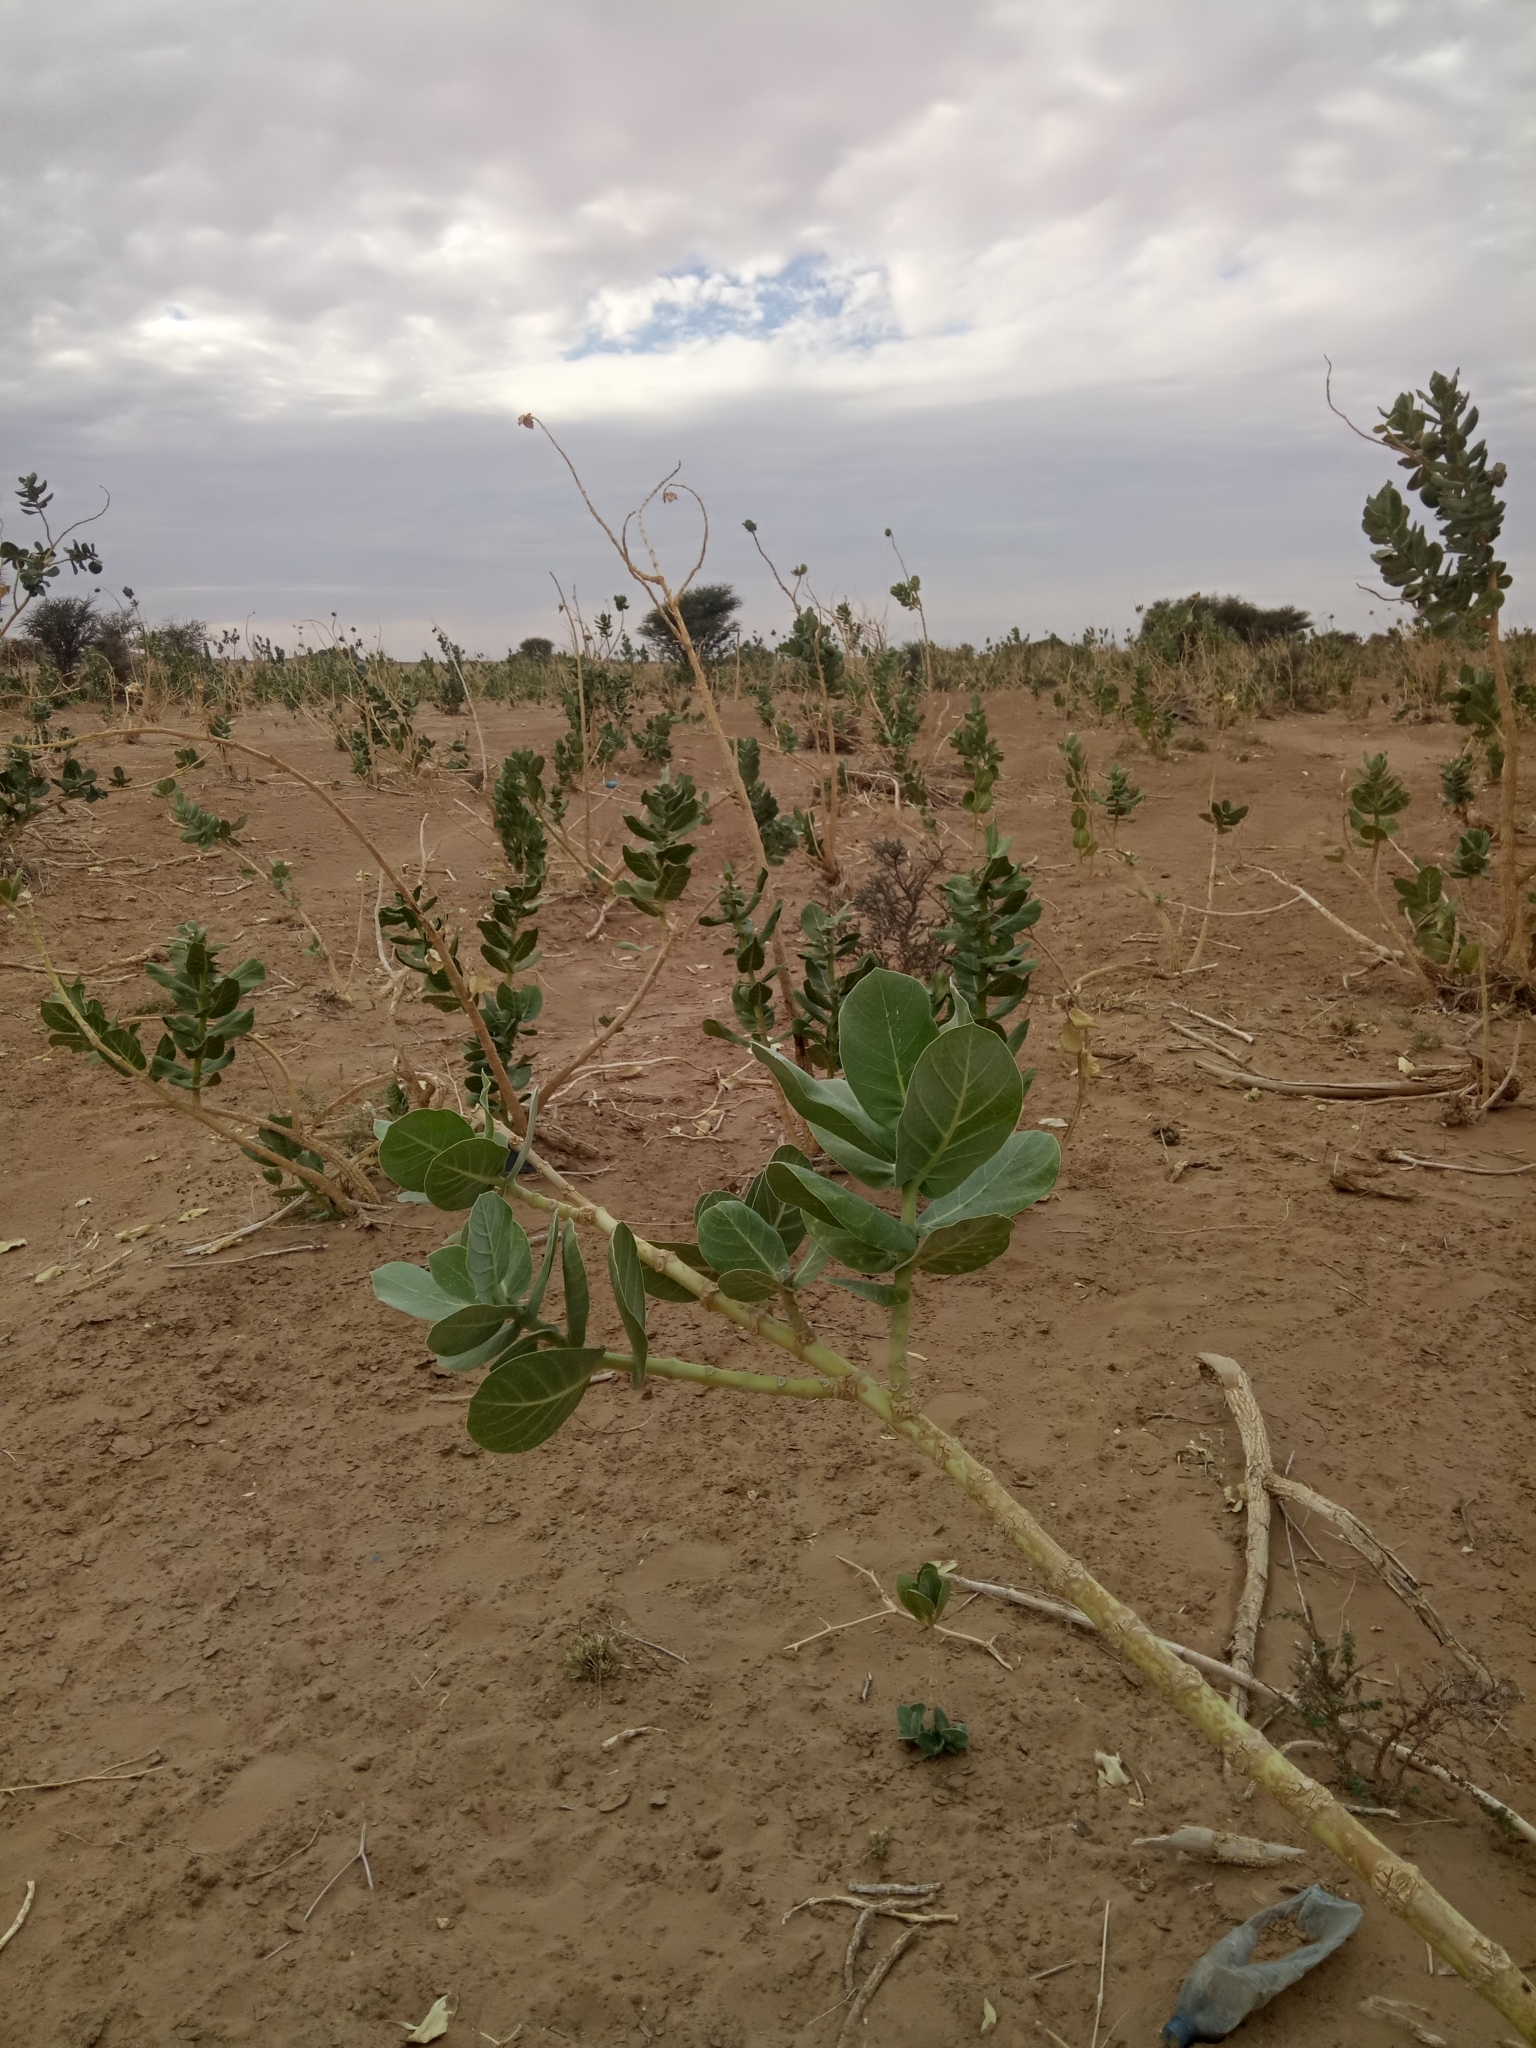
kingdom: Plantae
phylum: Tracheophyta
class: Magnoliopsida
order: Gentianales
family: Apocynaceae
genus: Calotropis
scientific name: Calotropis procera
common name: Roostertree
